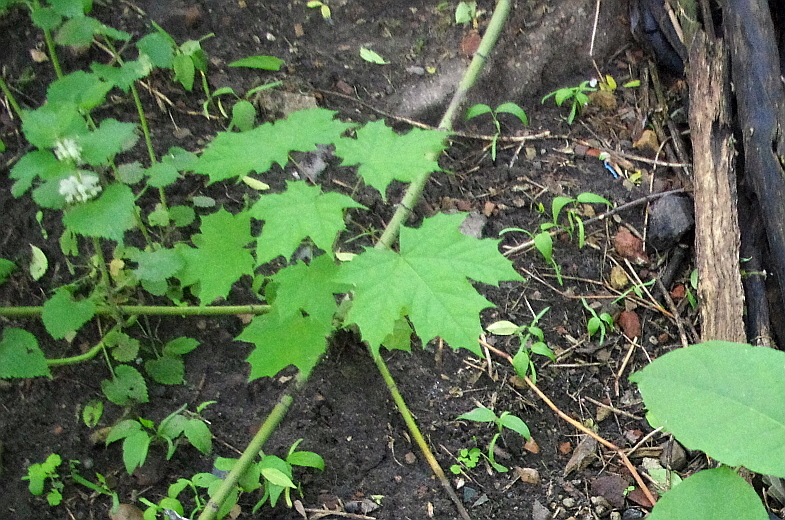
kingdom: Plantae
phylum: Tracheophyta
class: Magnoliopsida
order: Sapindales
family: Sapindaceae
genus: Acer
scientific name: Acer platanoides
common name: Norway maple
